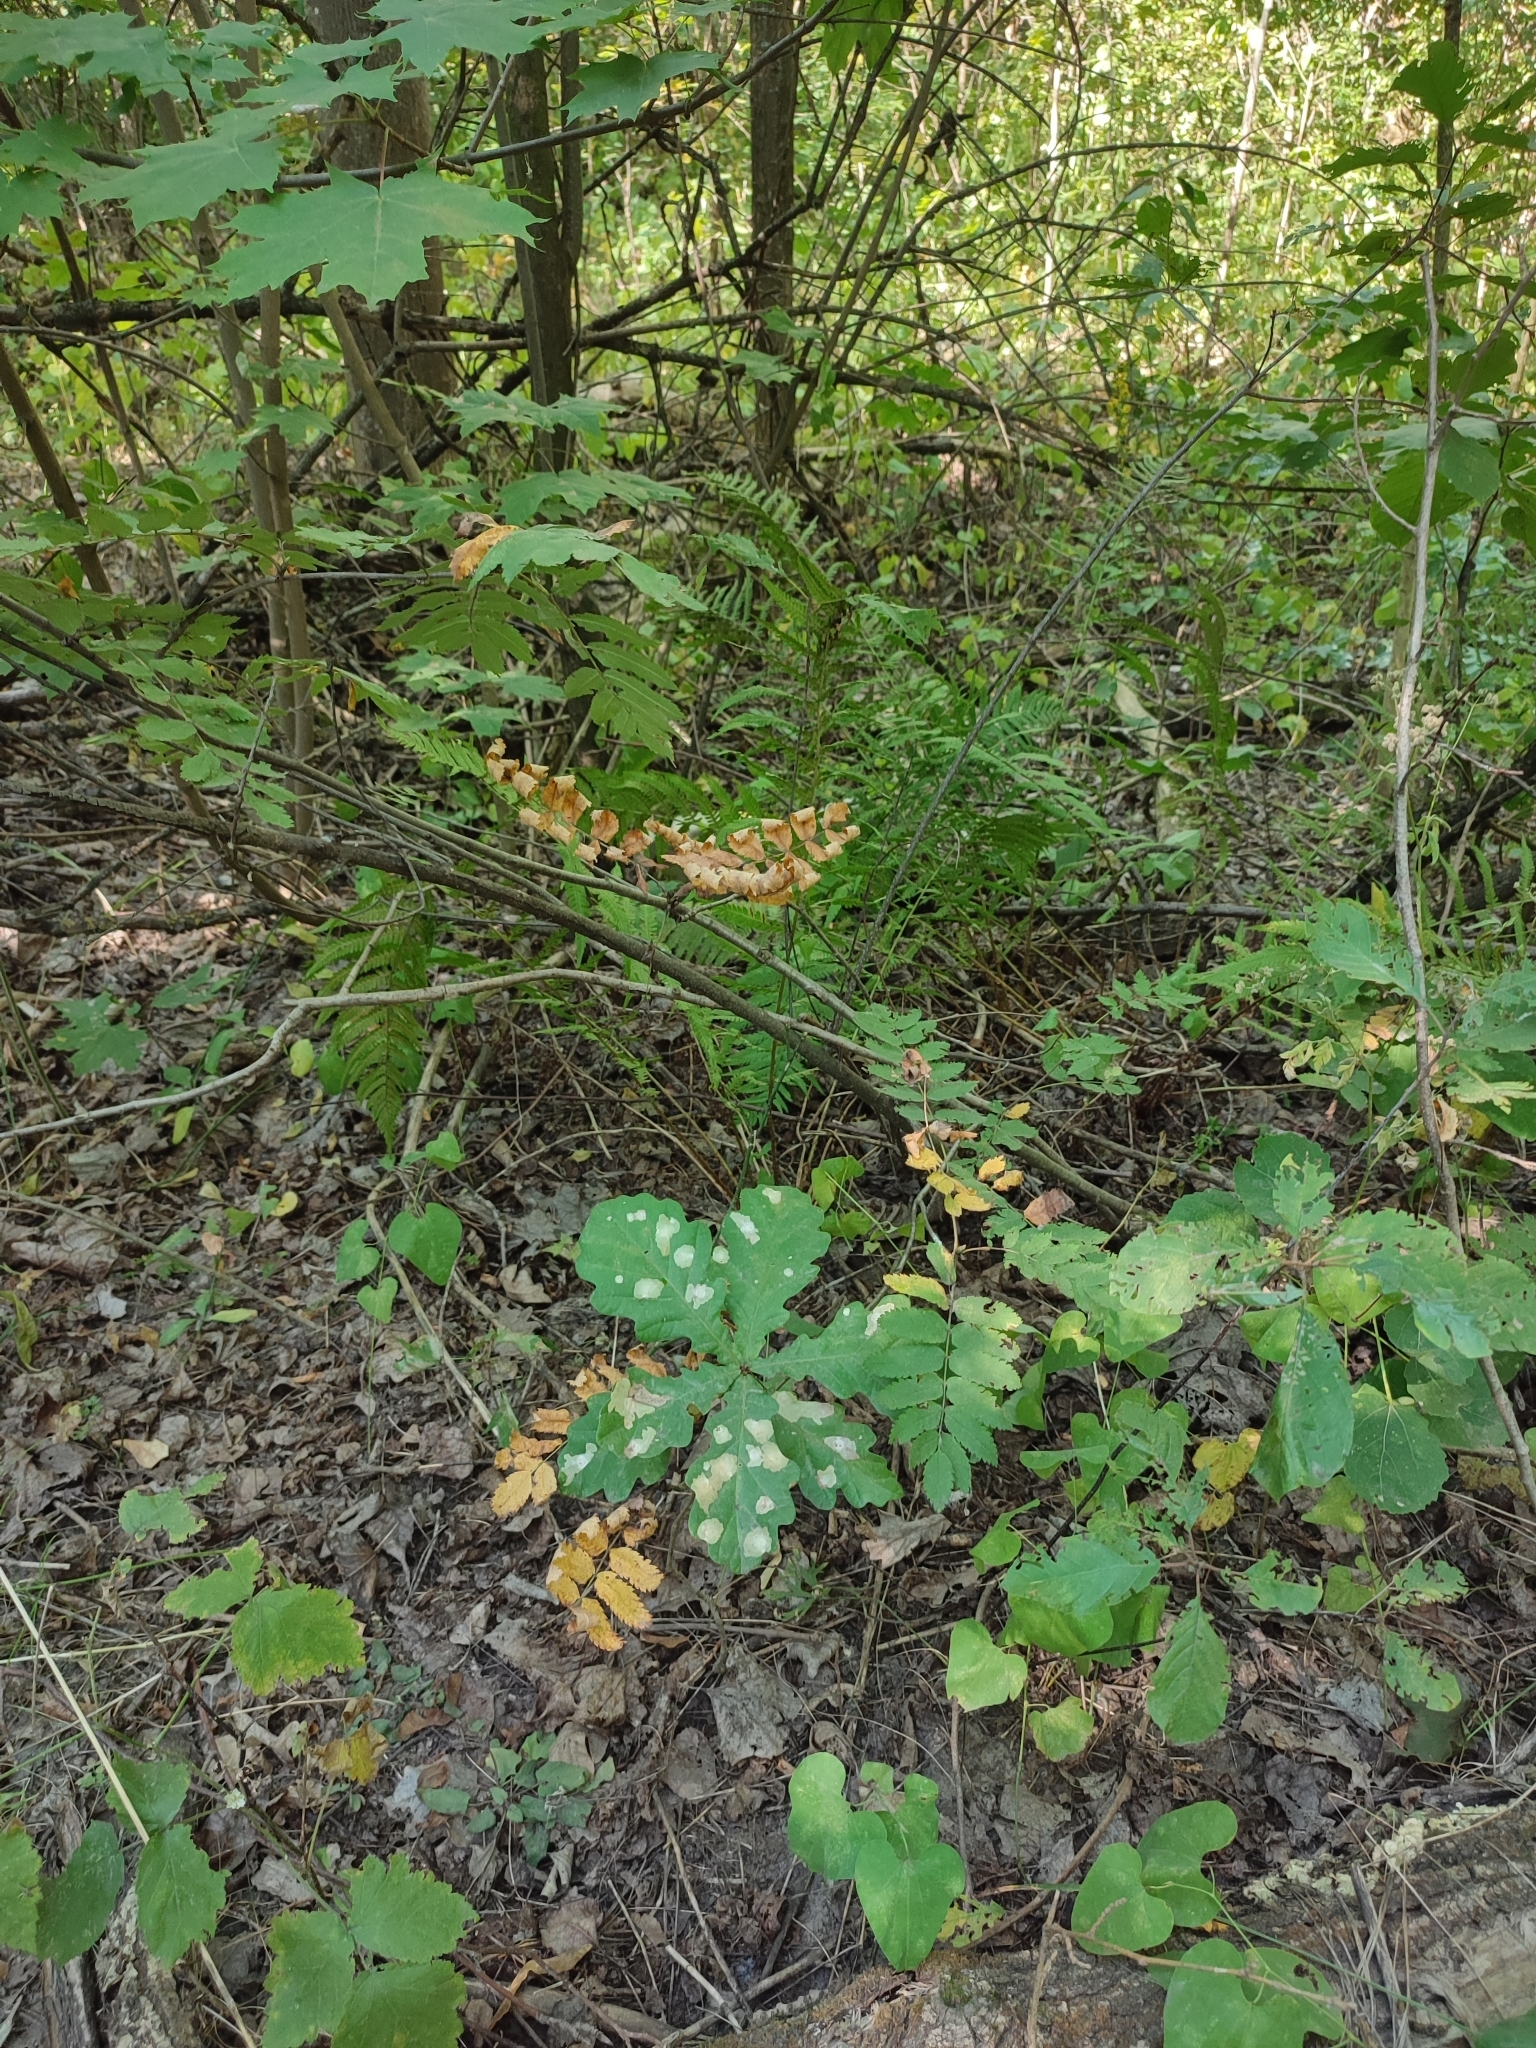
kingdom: Plantae
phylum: Tracheophyta
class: Magnoliopsida
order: Fagales
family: Fagaceae
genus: Quercus
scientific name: Quercus robur
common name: Pedunculate oak
